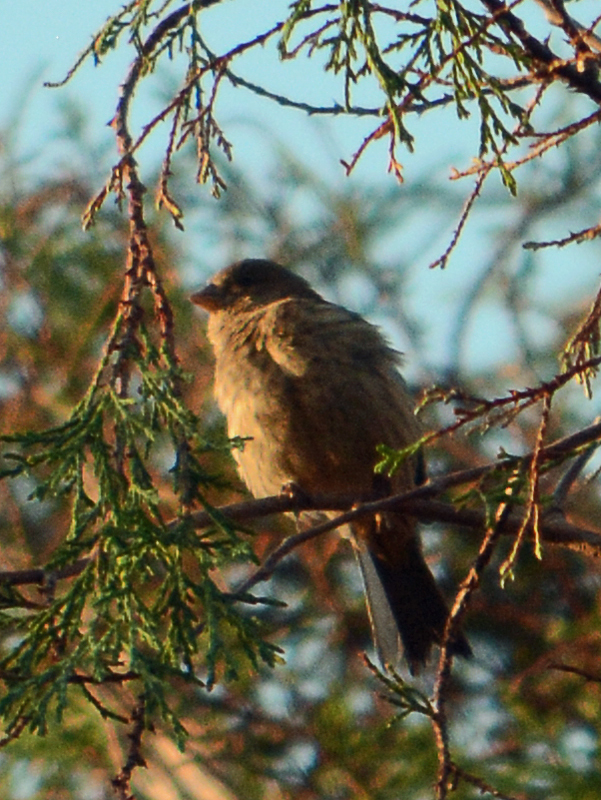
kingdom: Animalia
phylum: Chordata
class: Aves
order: Passeriformes
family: Passeridae
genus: Passer
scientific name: Passer domesticus
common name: House sparrow
